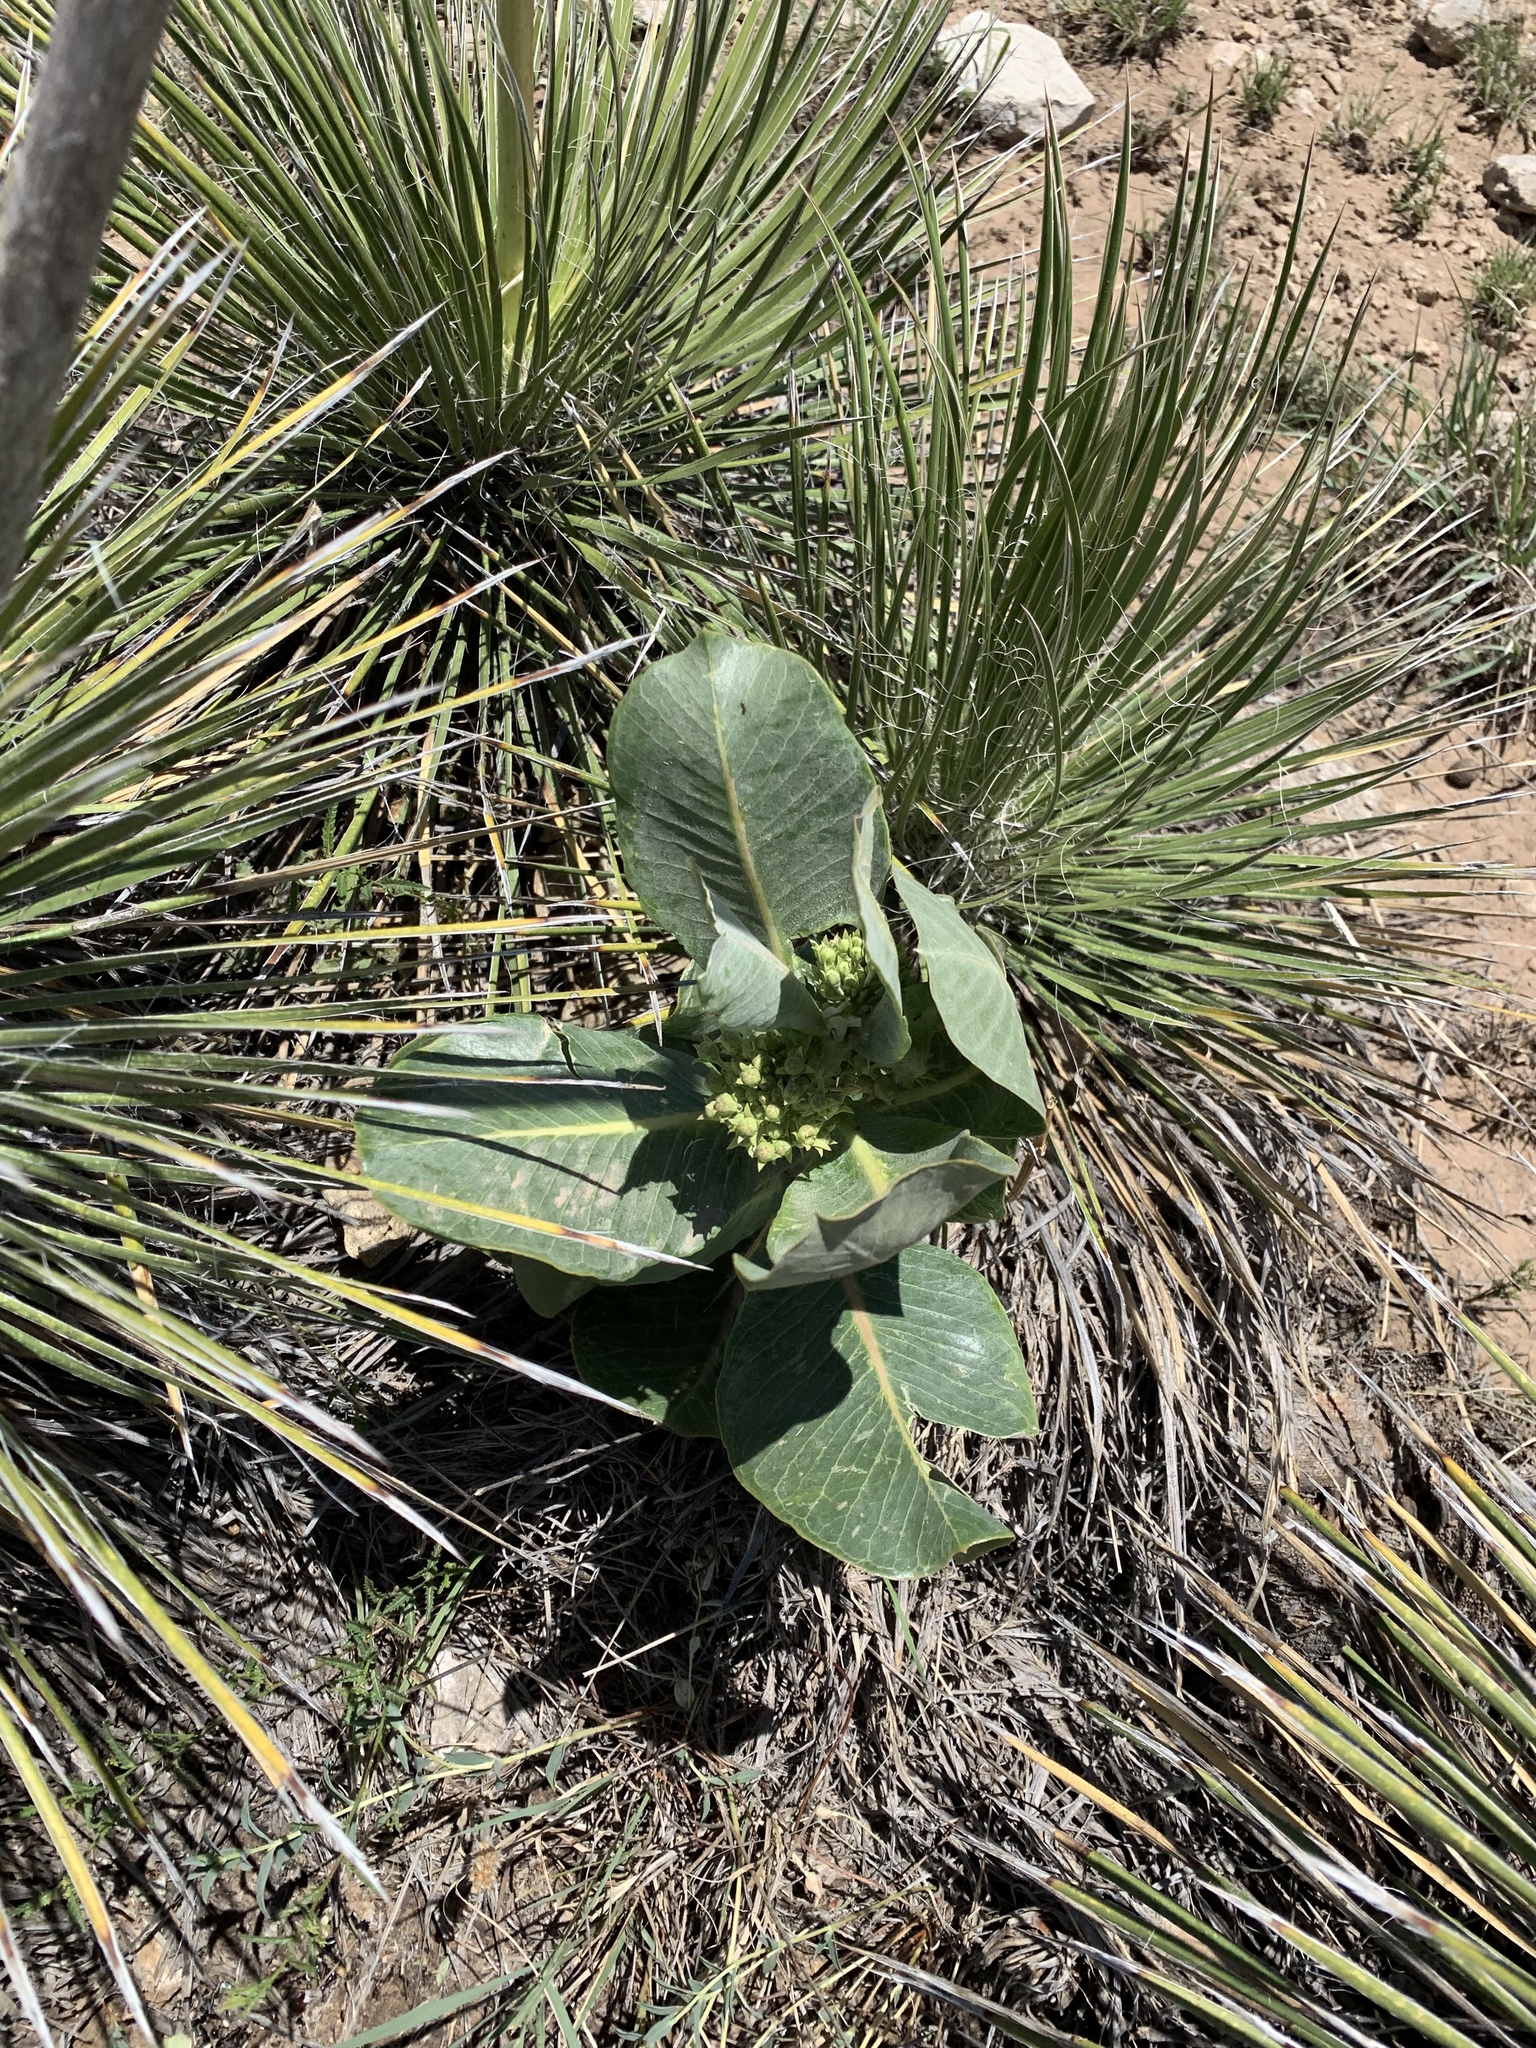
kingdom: Plantae
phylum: Tracheophyta
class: Magnoliopsida
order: Gentianales
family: Apocynaceae
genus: Asclepias
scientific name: Asclepias latifolia
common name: Broadleaf milkweed
